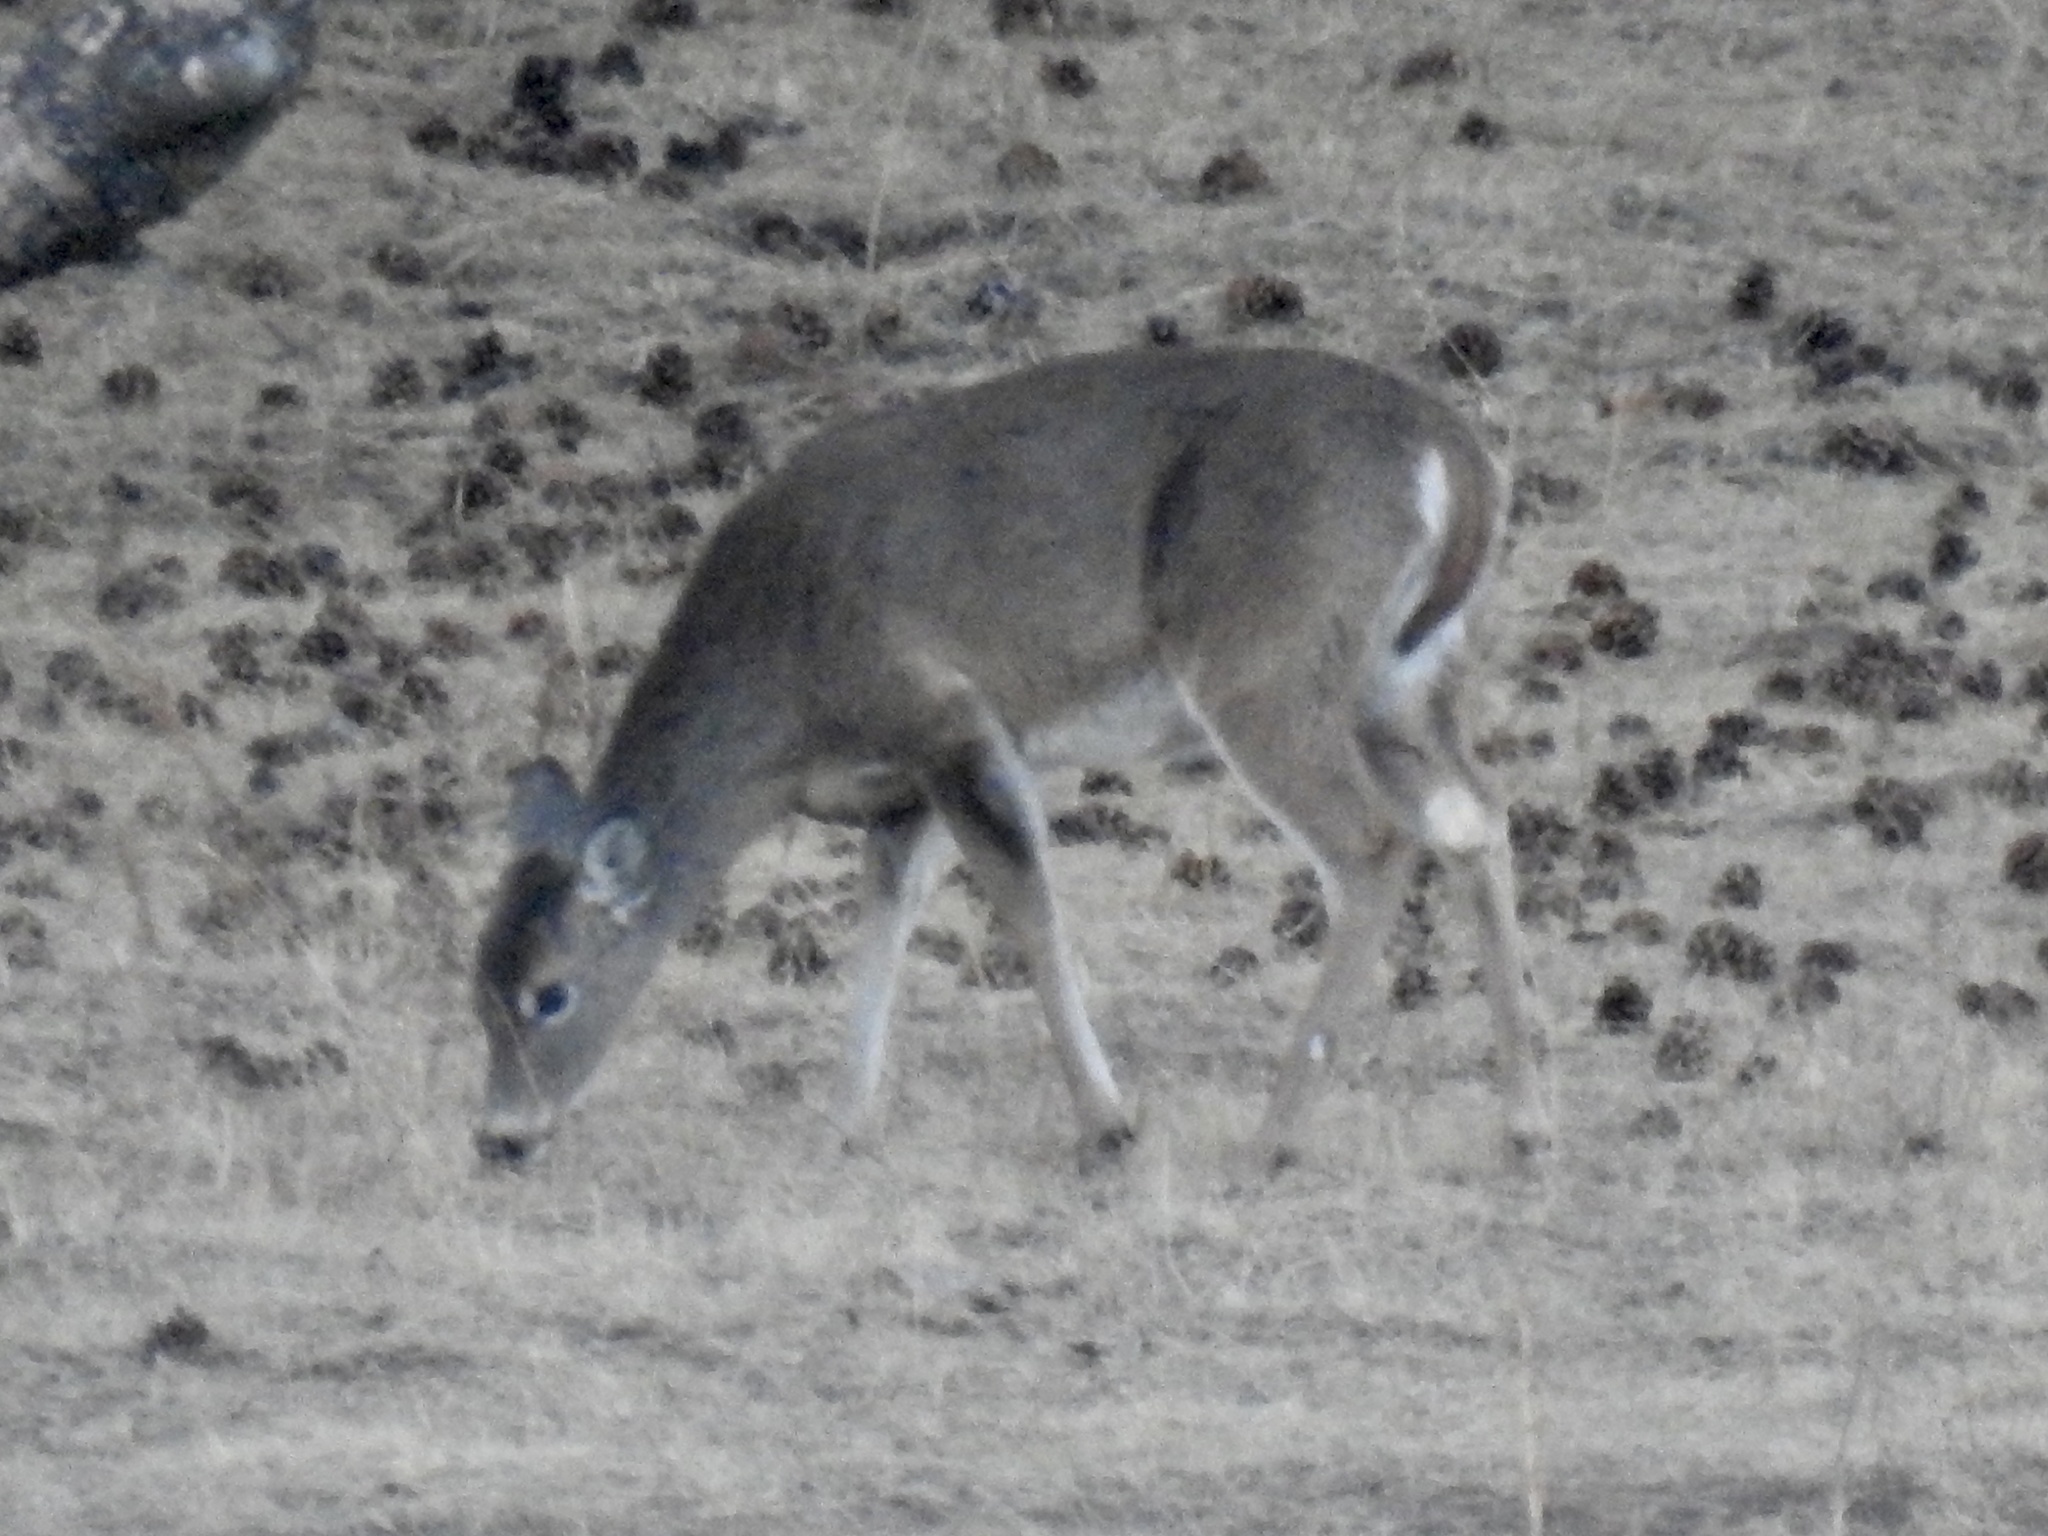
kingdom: Animalia
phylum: Chordata
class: Mammalia
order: Artiodactyla
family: Cervidae
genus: Odocoileus
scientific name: Odocoileus virginianus
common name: White-tailed deer
